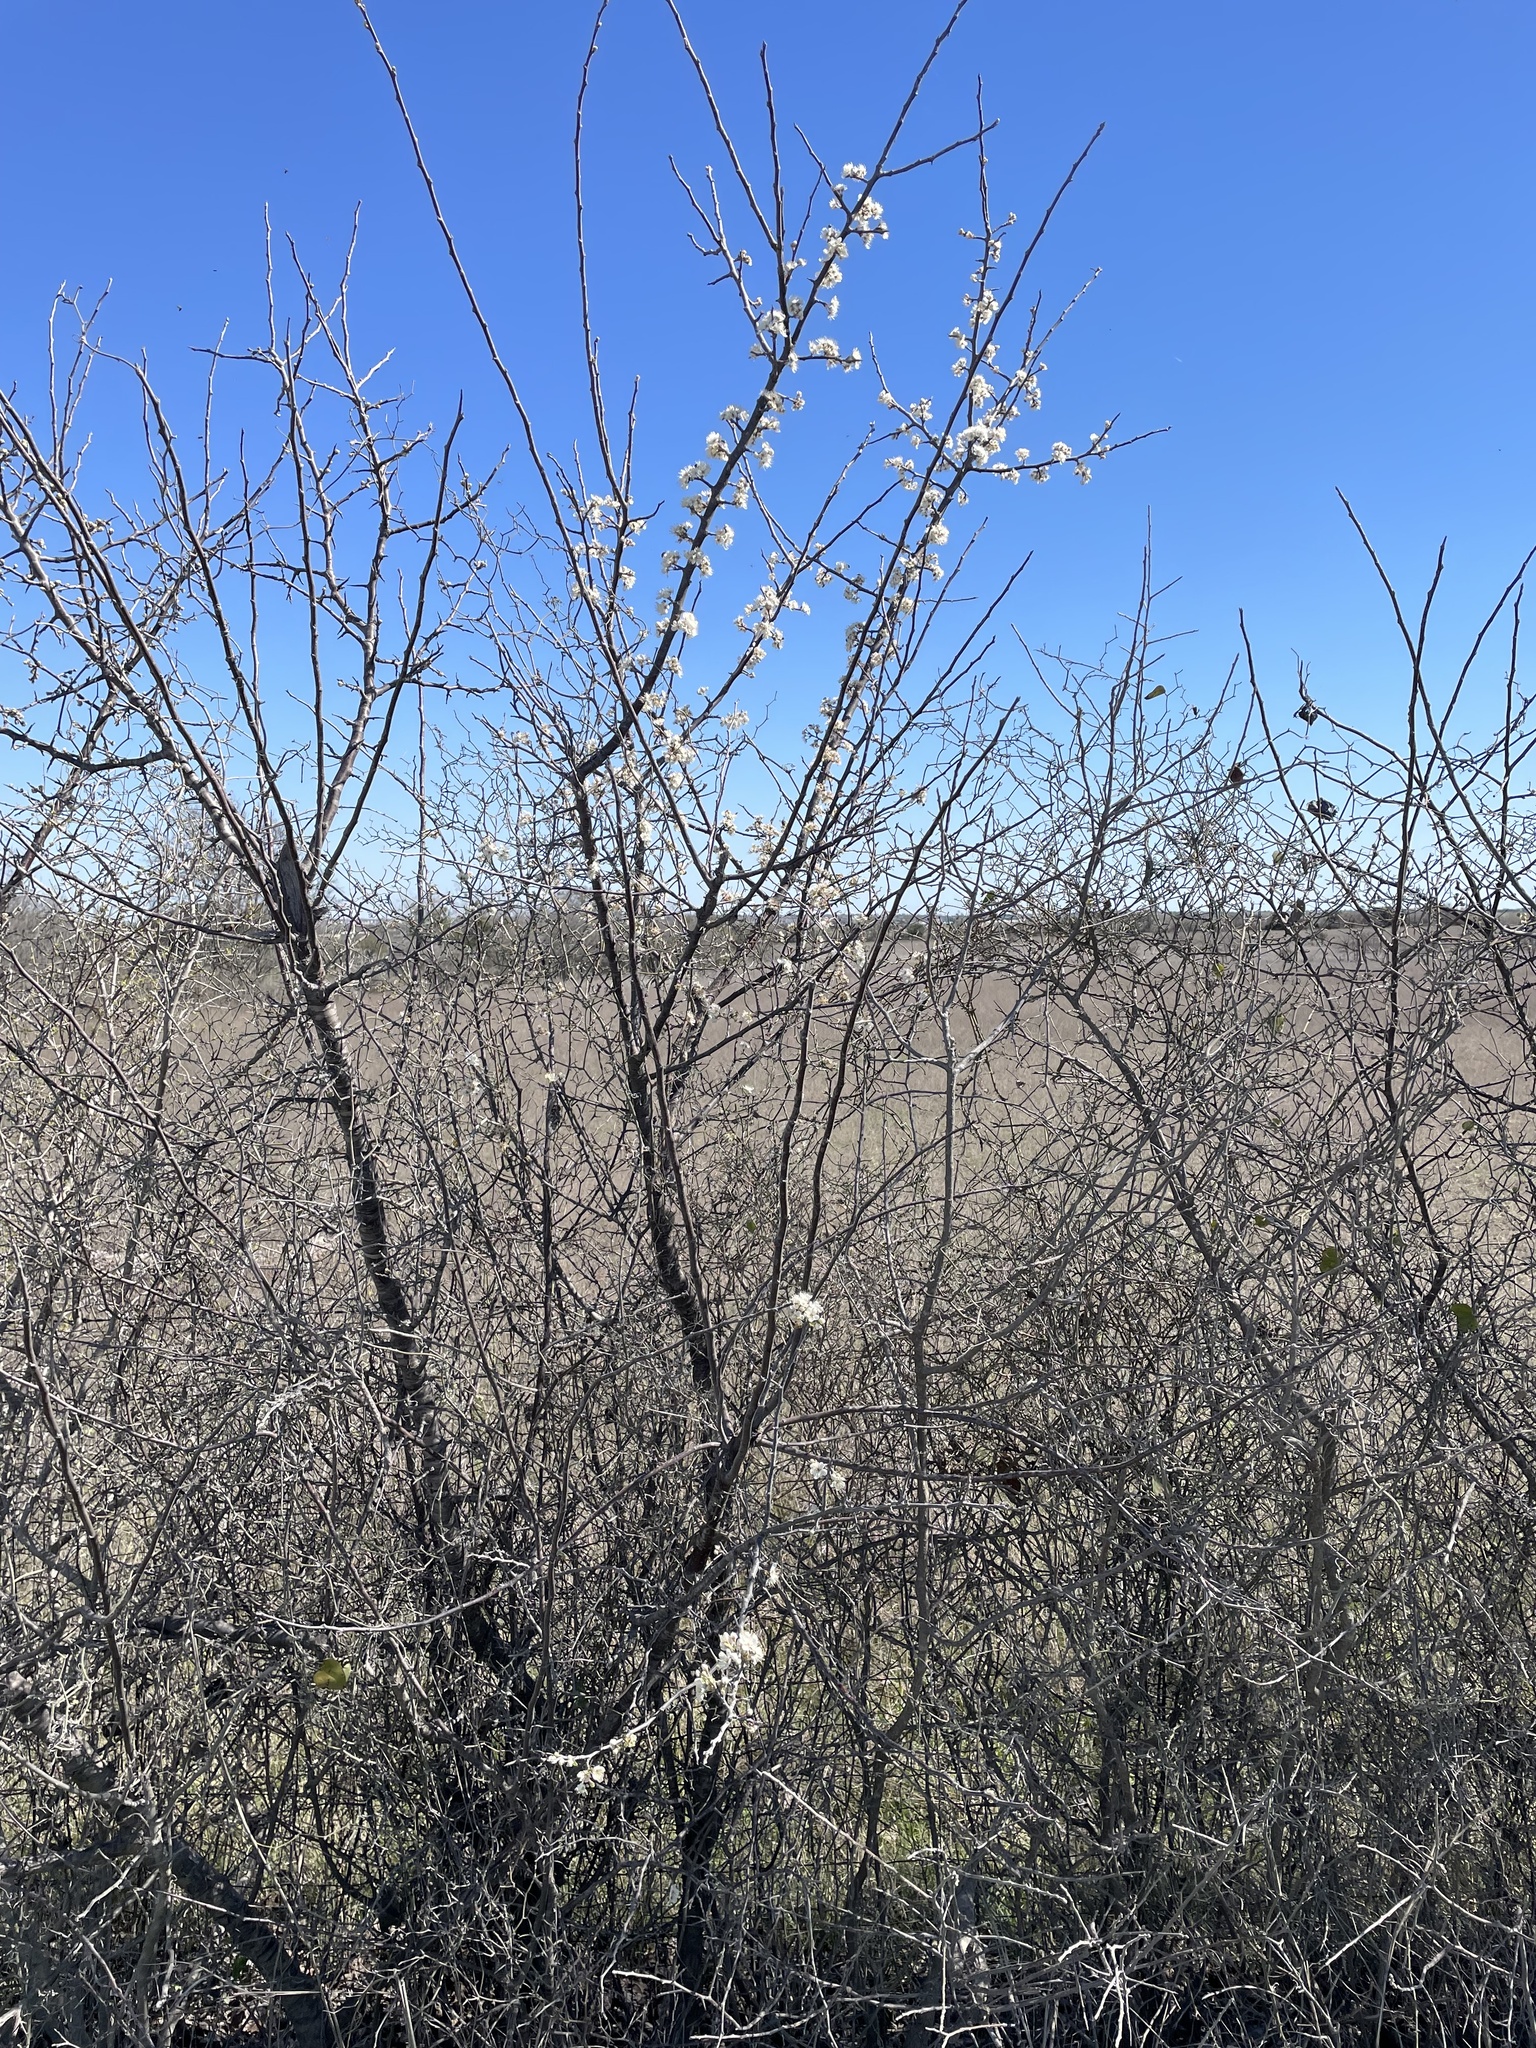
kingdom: Plantae
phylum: Tracheophyta
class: Magnoliopsida
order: Rosales
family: Rosaceae
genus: Prunus
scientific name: Prunus mexicana
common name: Mexican plum
